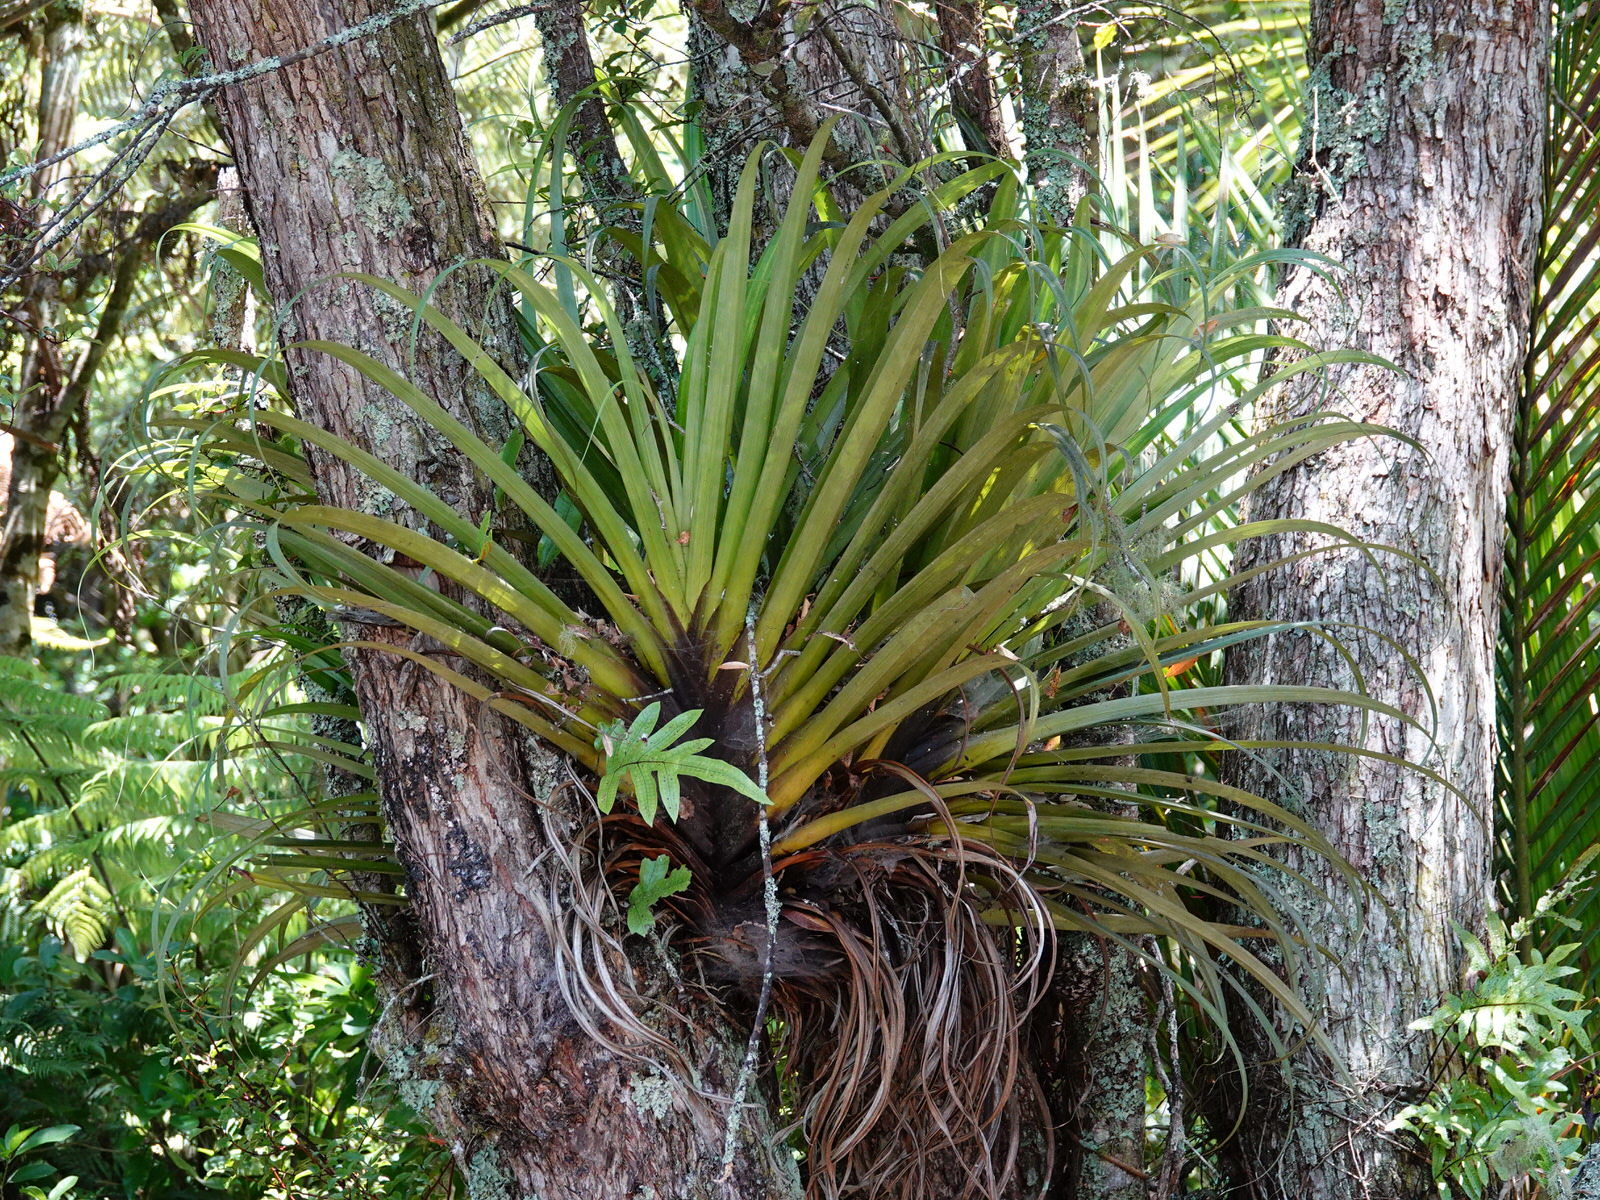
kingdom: Plantae
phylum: Tracheophyta
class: Liliopsida
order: Asparagales
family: Asteliaceae
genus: Astelia
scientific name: Astelia hastata
